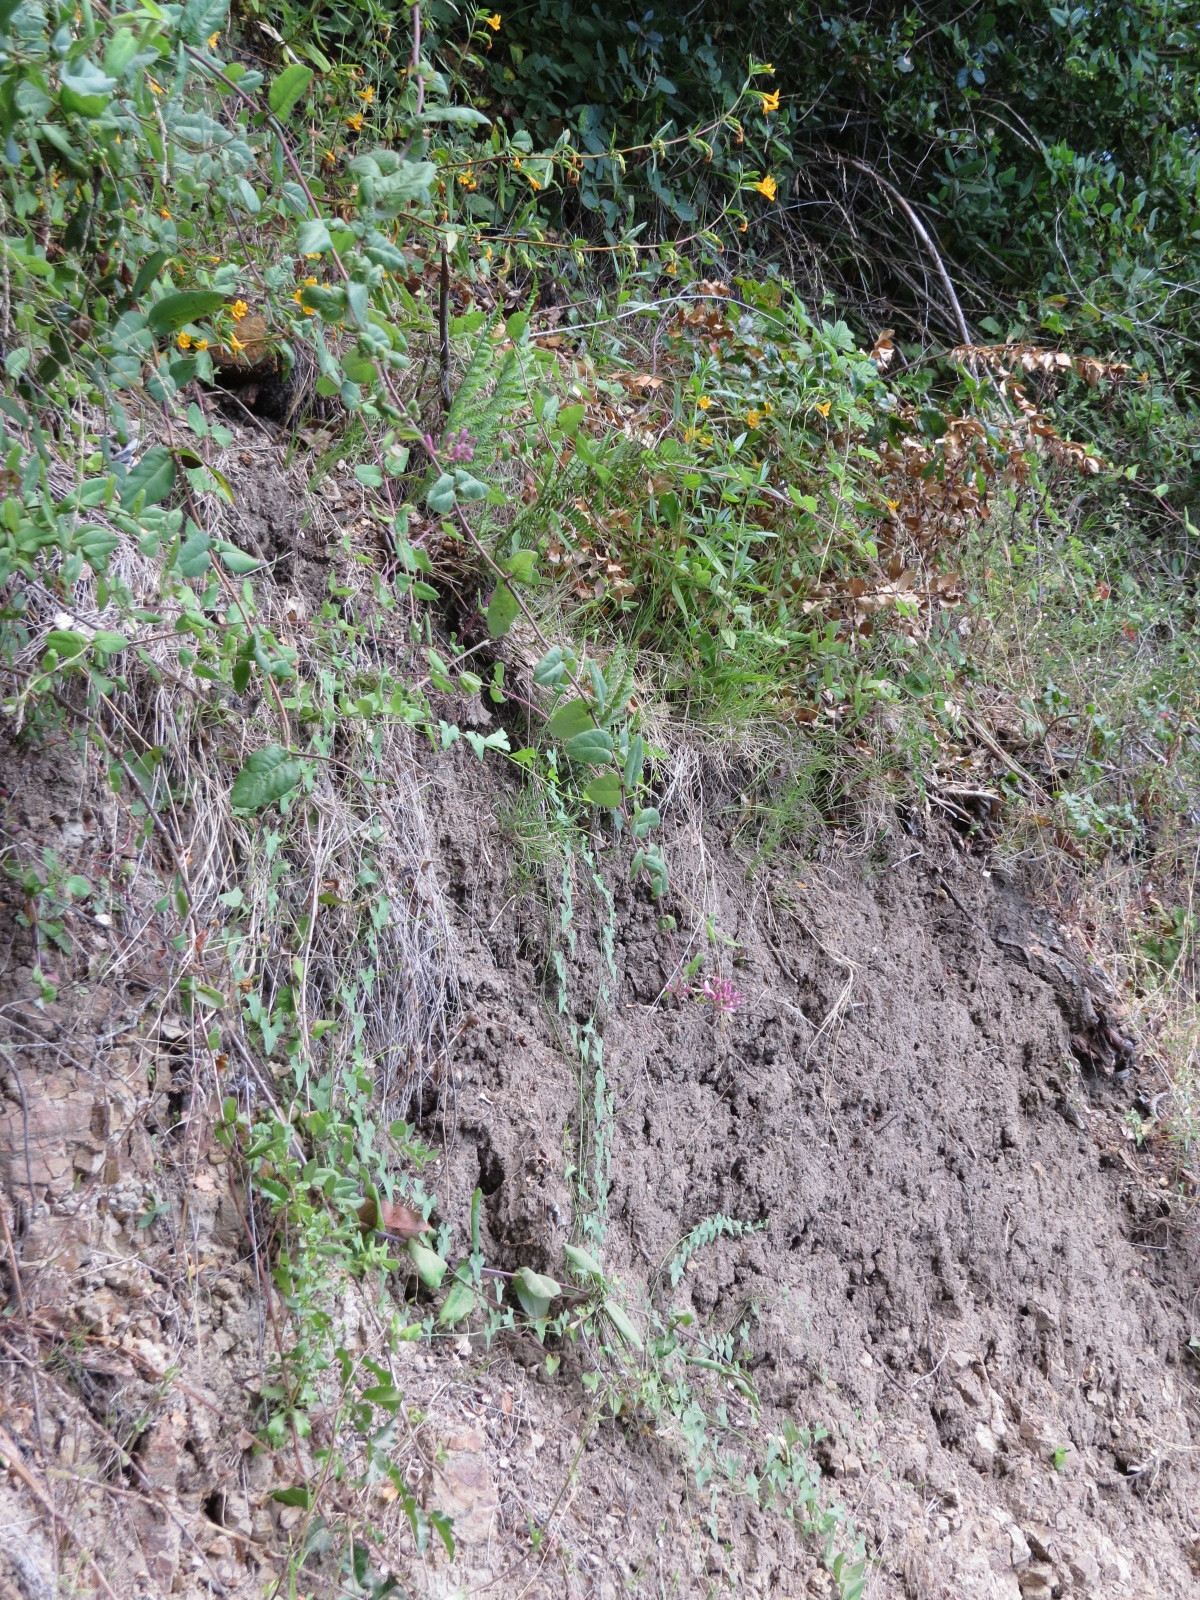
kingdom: Plantae
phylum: Tracheophyta
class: Magnoliopsida
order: Dipsacales
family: Caprifoliaceae
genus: Lonicera
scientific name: Lonicera hispidula
